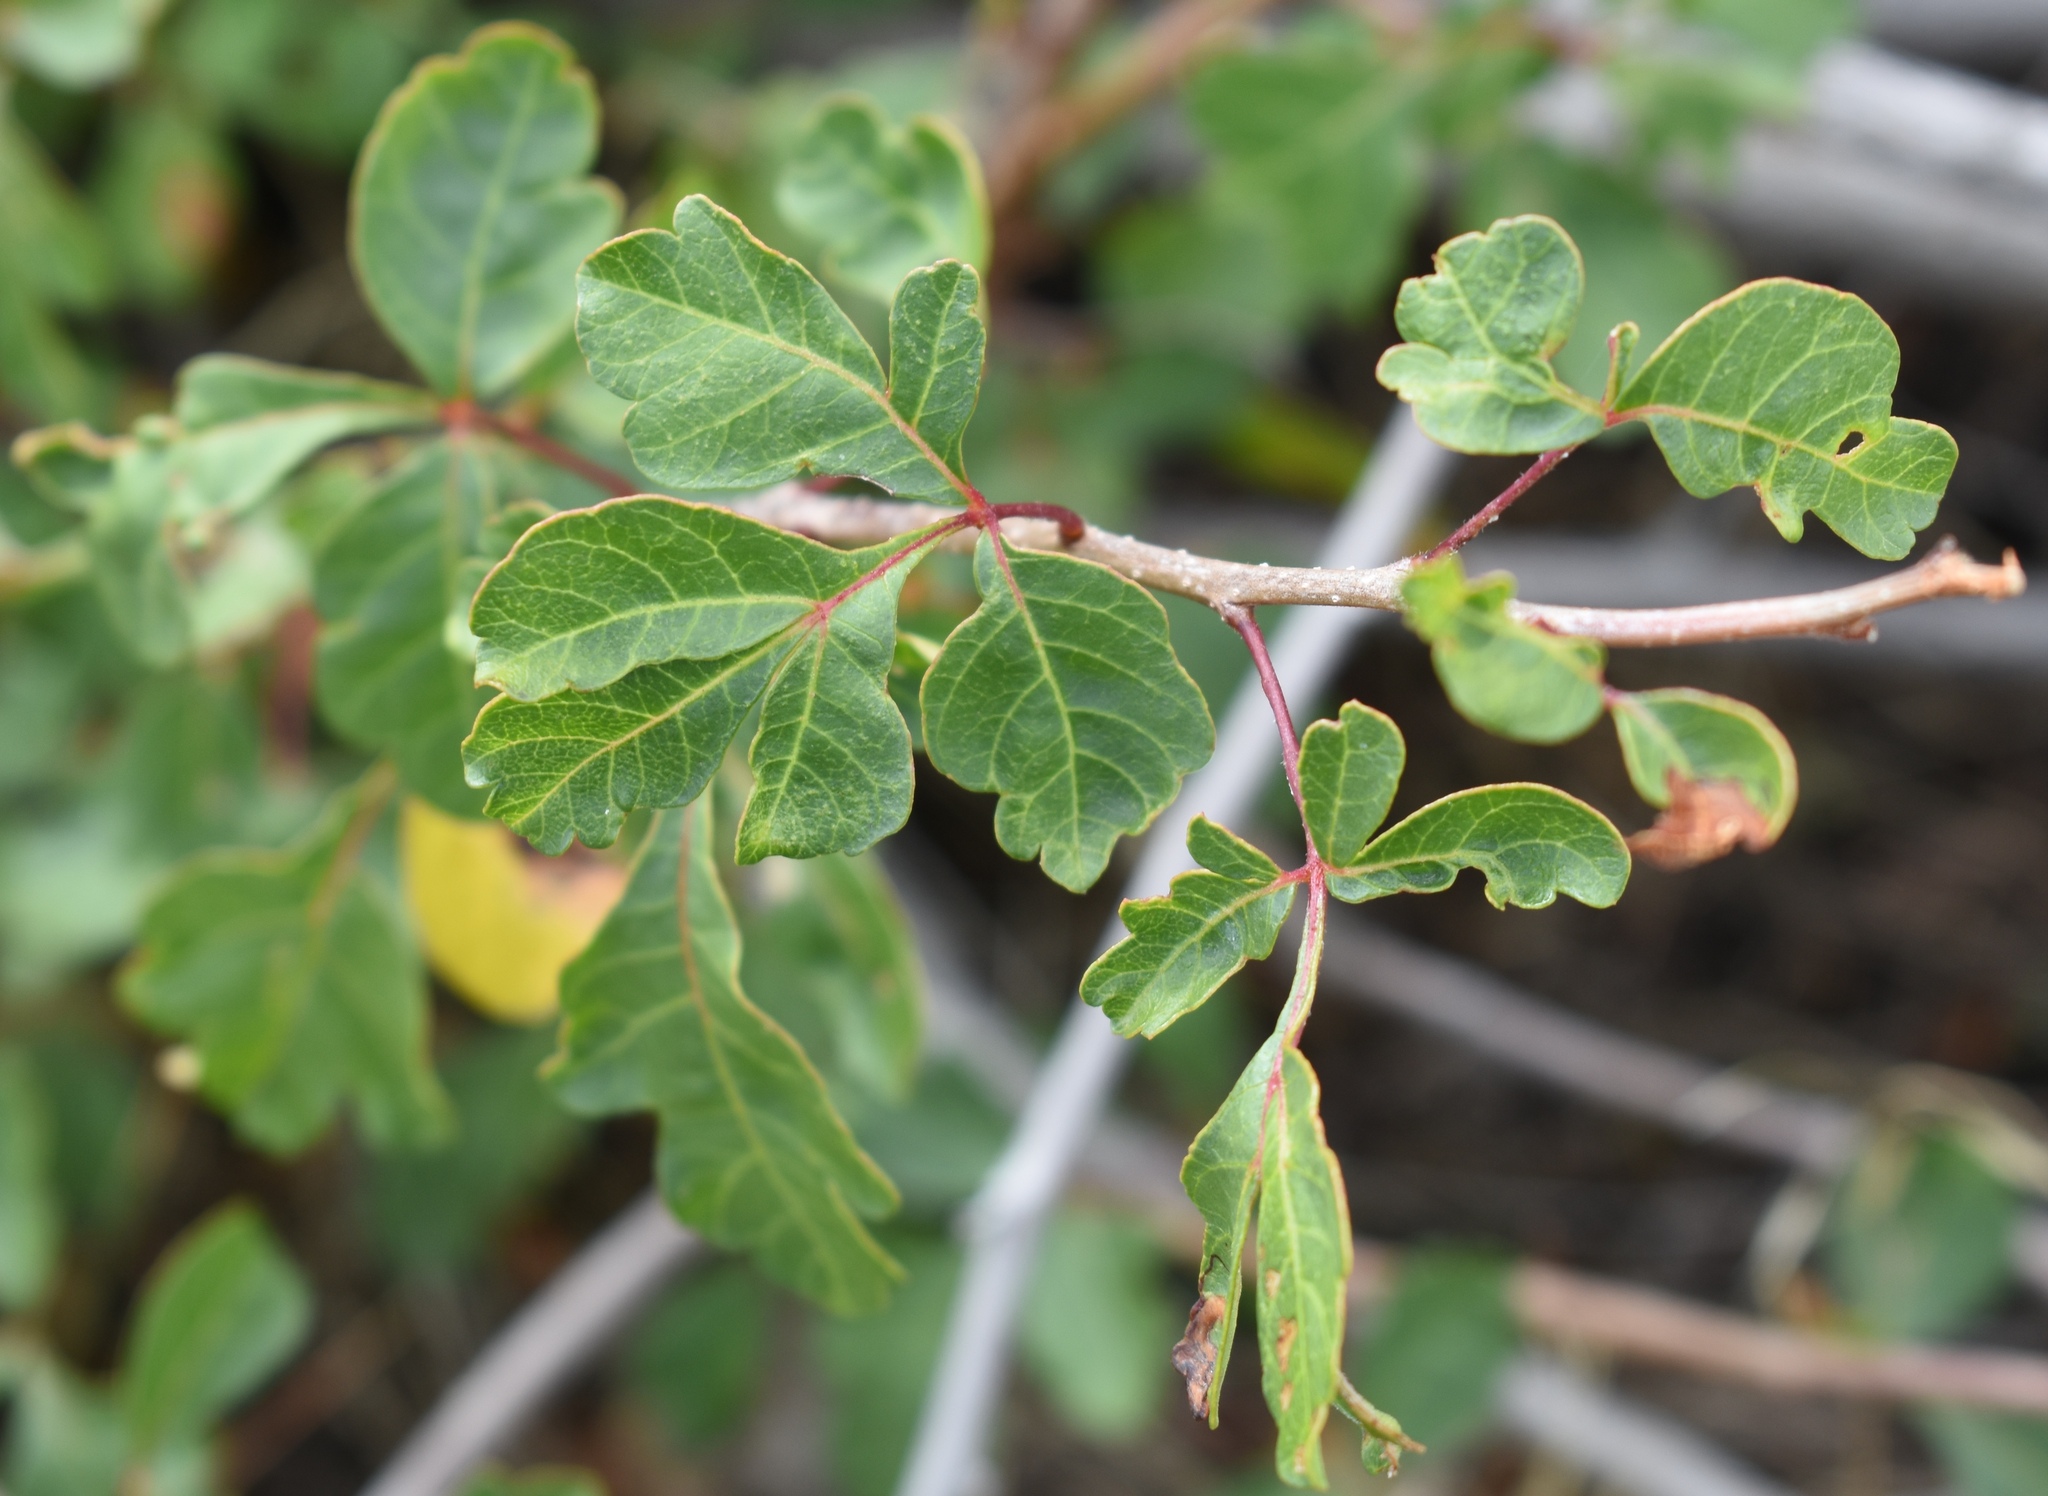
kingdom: Plantae
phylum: Tracheophyta
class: Magnoliopsida
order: Sapindales
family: Anacardiaceae
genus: Rhus
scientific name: Rhus trilobata
